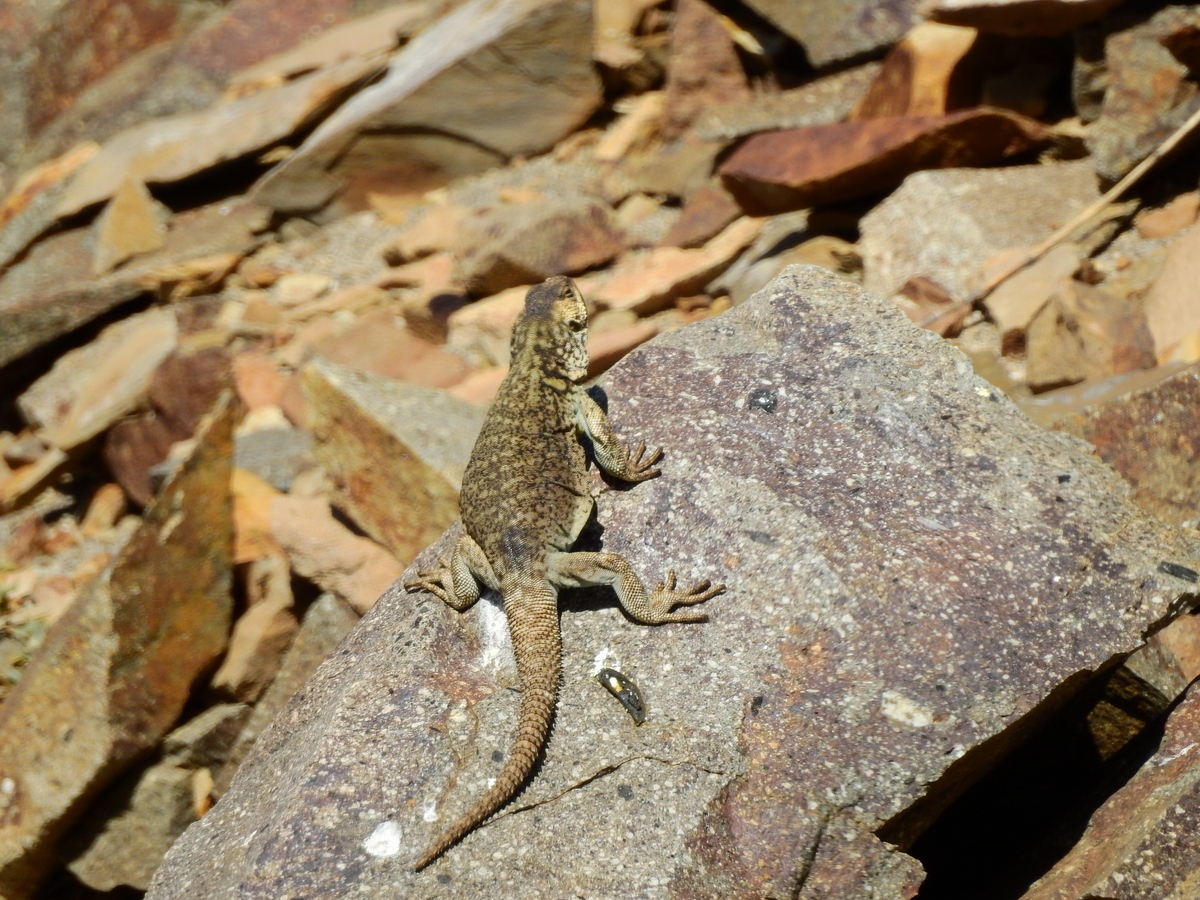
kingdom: Animalia
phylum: Chordata
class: Squamata
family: Liolaemidae
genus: Phymaturus
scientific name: Phymaturus verdugo
